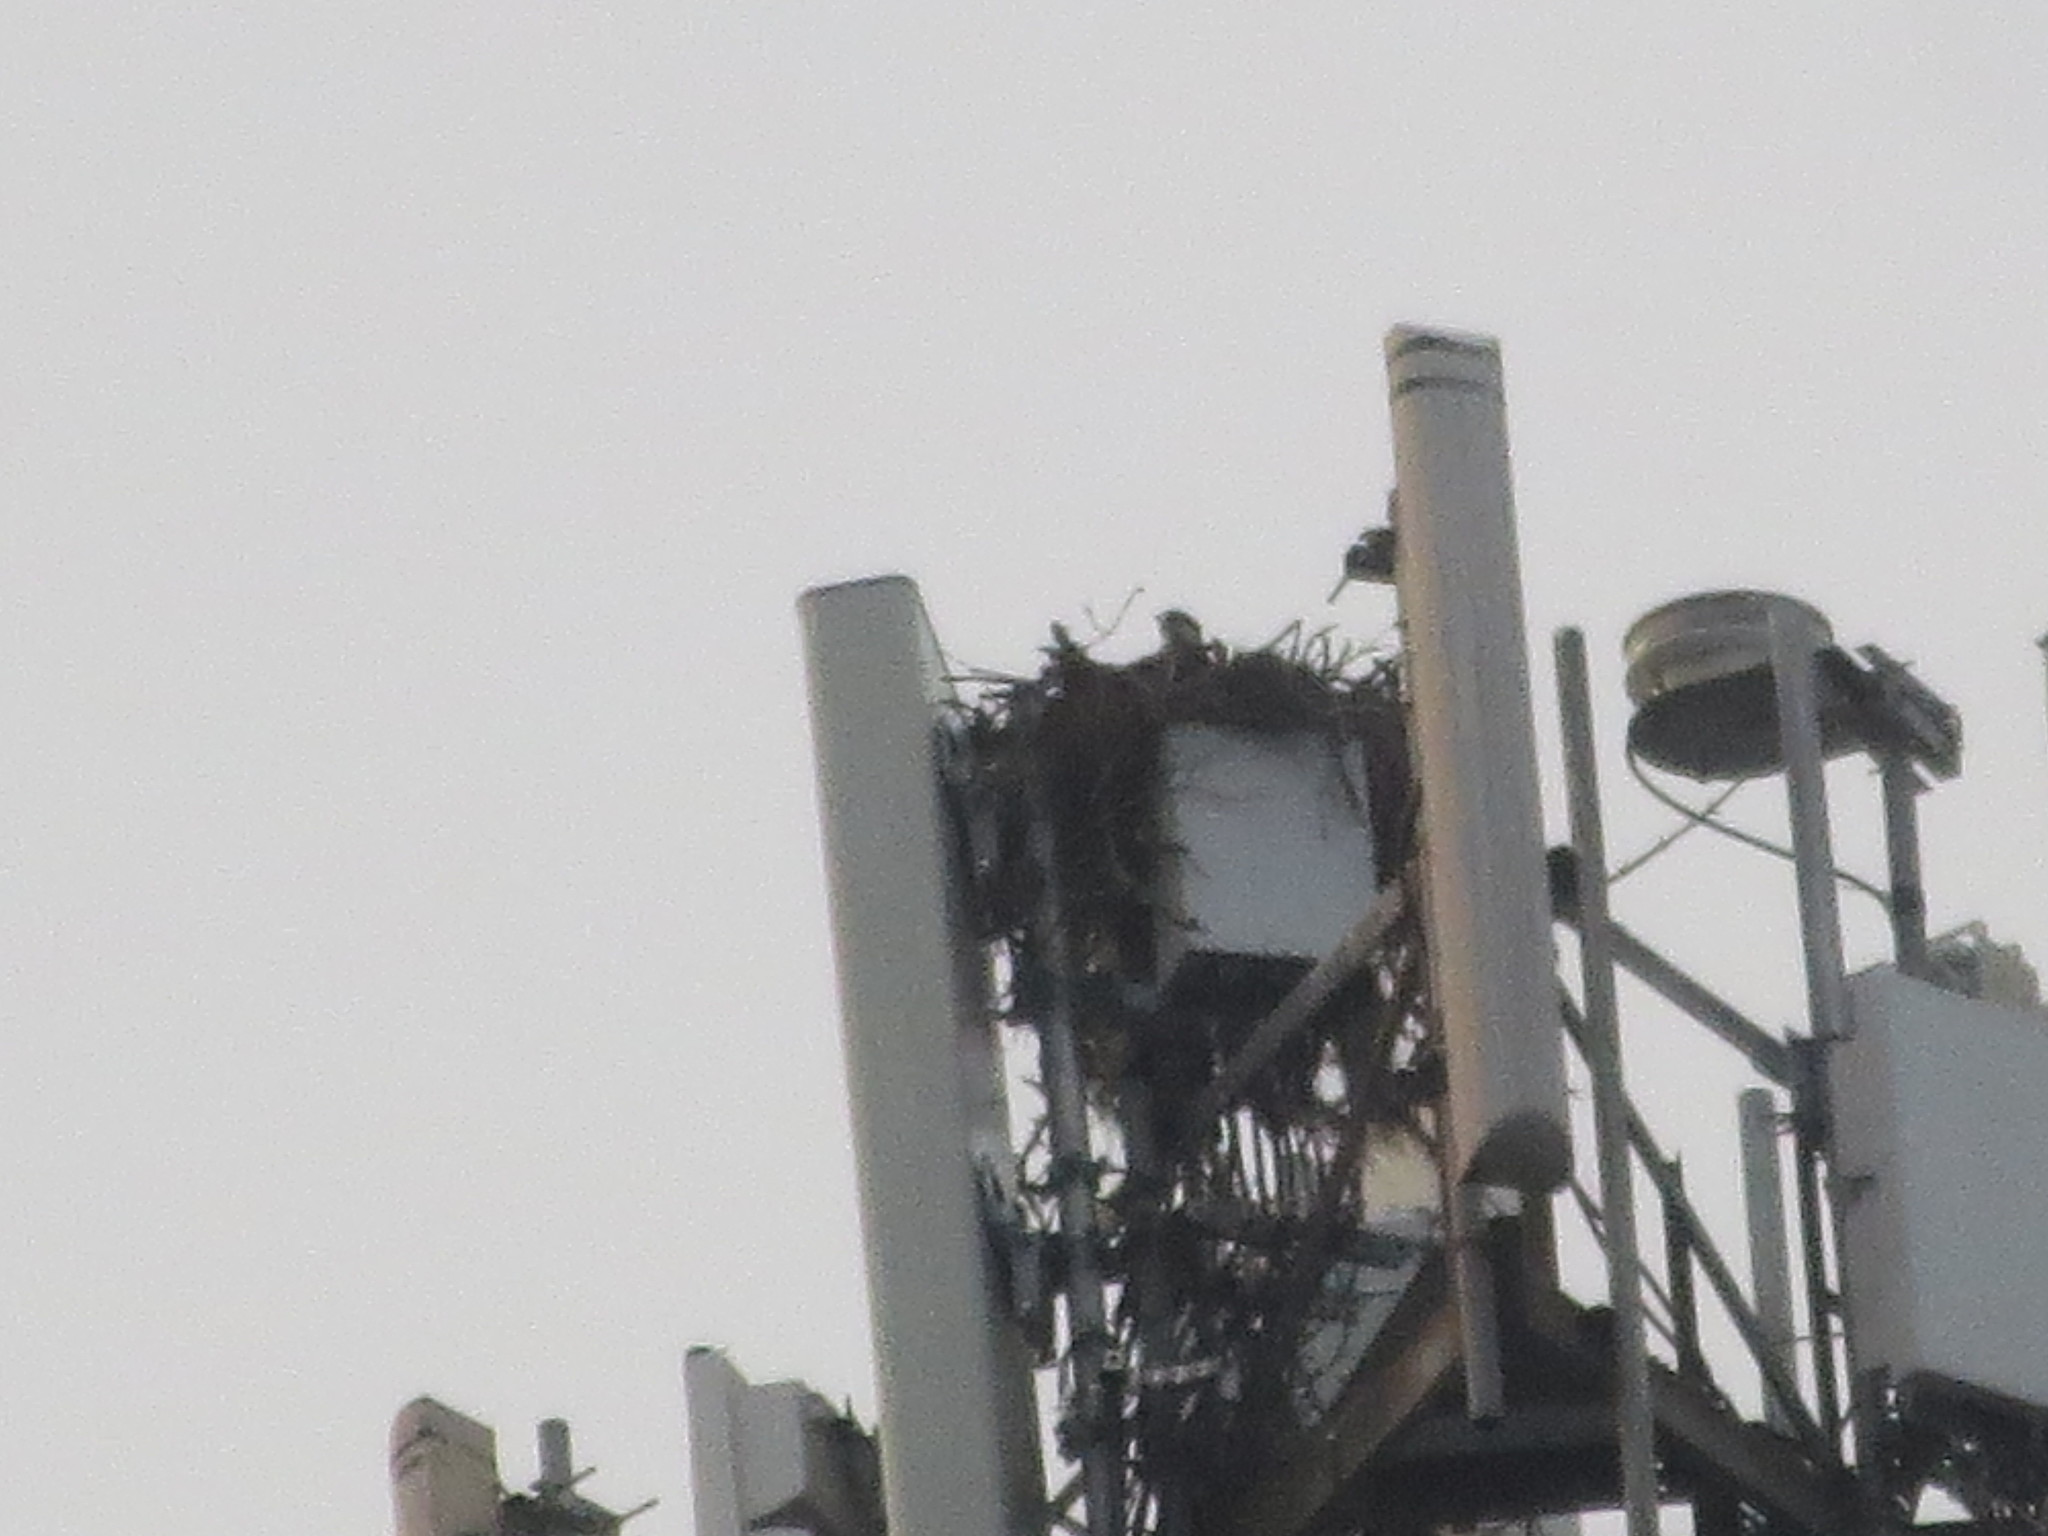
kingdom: Animalia
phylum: Chordata
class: Aves
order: Accipitriformes
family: Pandionidae
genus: Pandion
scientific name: Pandion haliaetus
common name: Osprey
